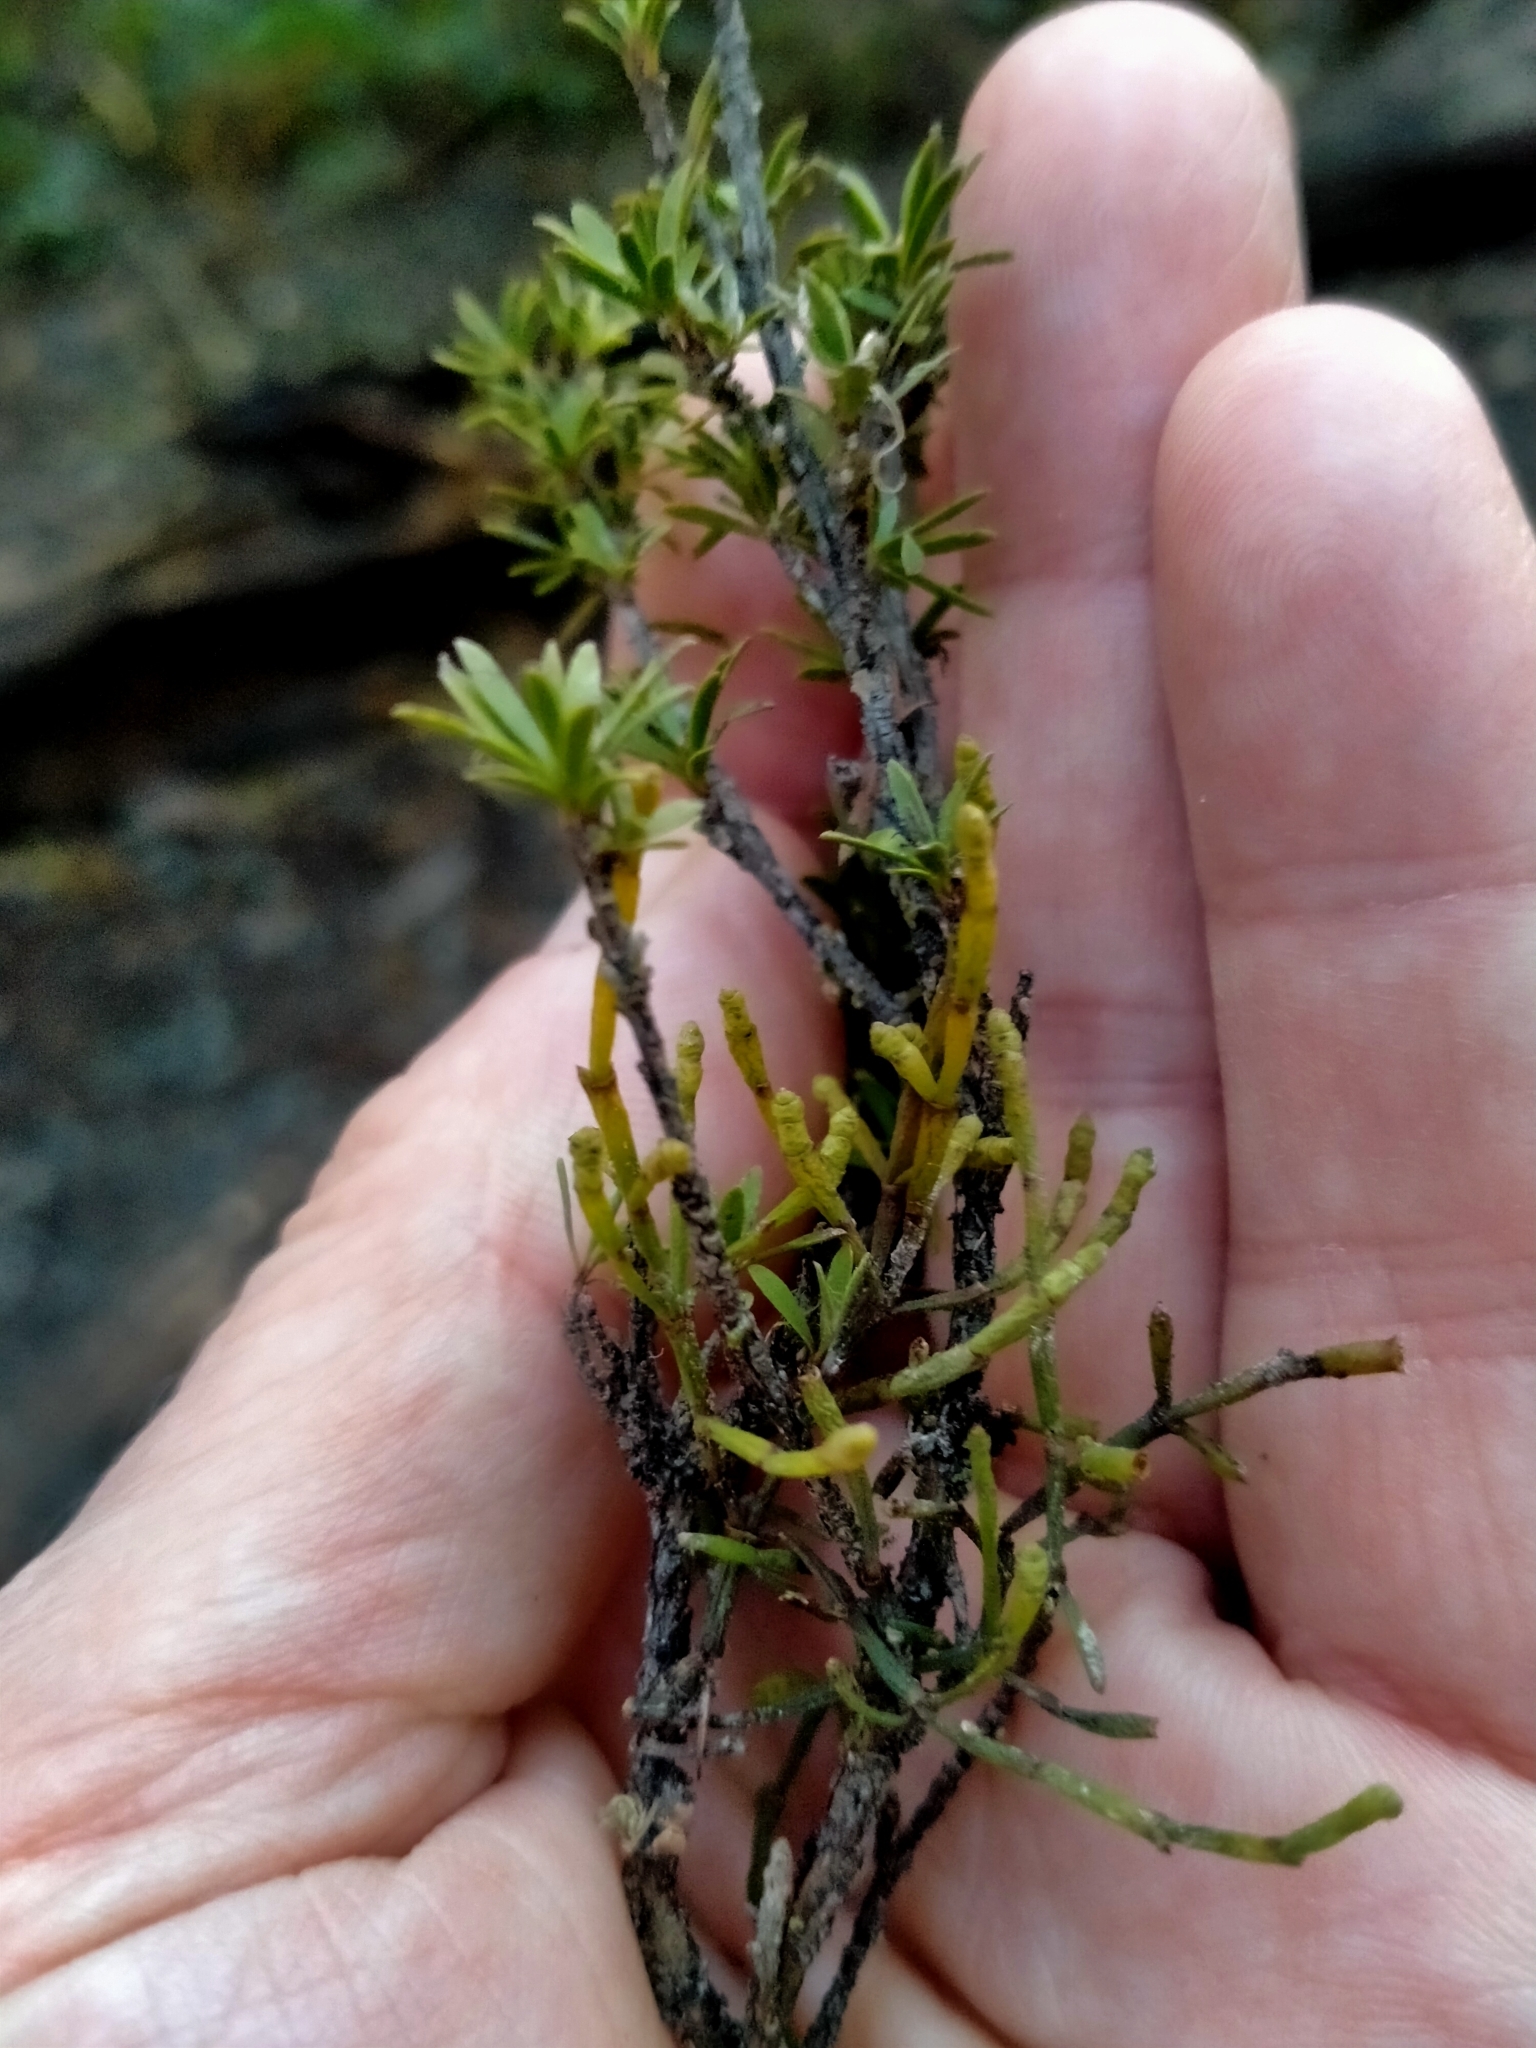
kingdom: Plantae
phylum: Tracheophyta
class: Magnoliopsida
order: Santalales
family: Viscaceae
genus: Korthalsella
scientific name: Korthalsella salicornioides
